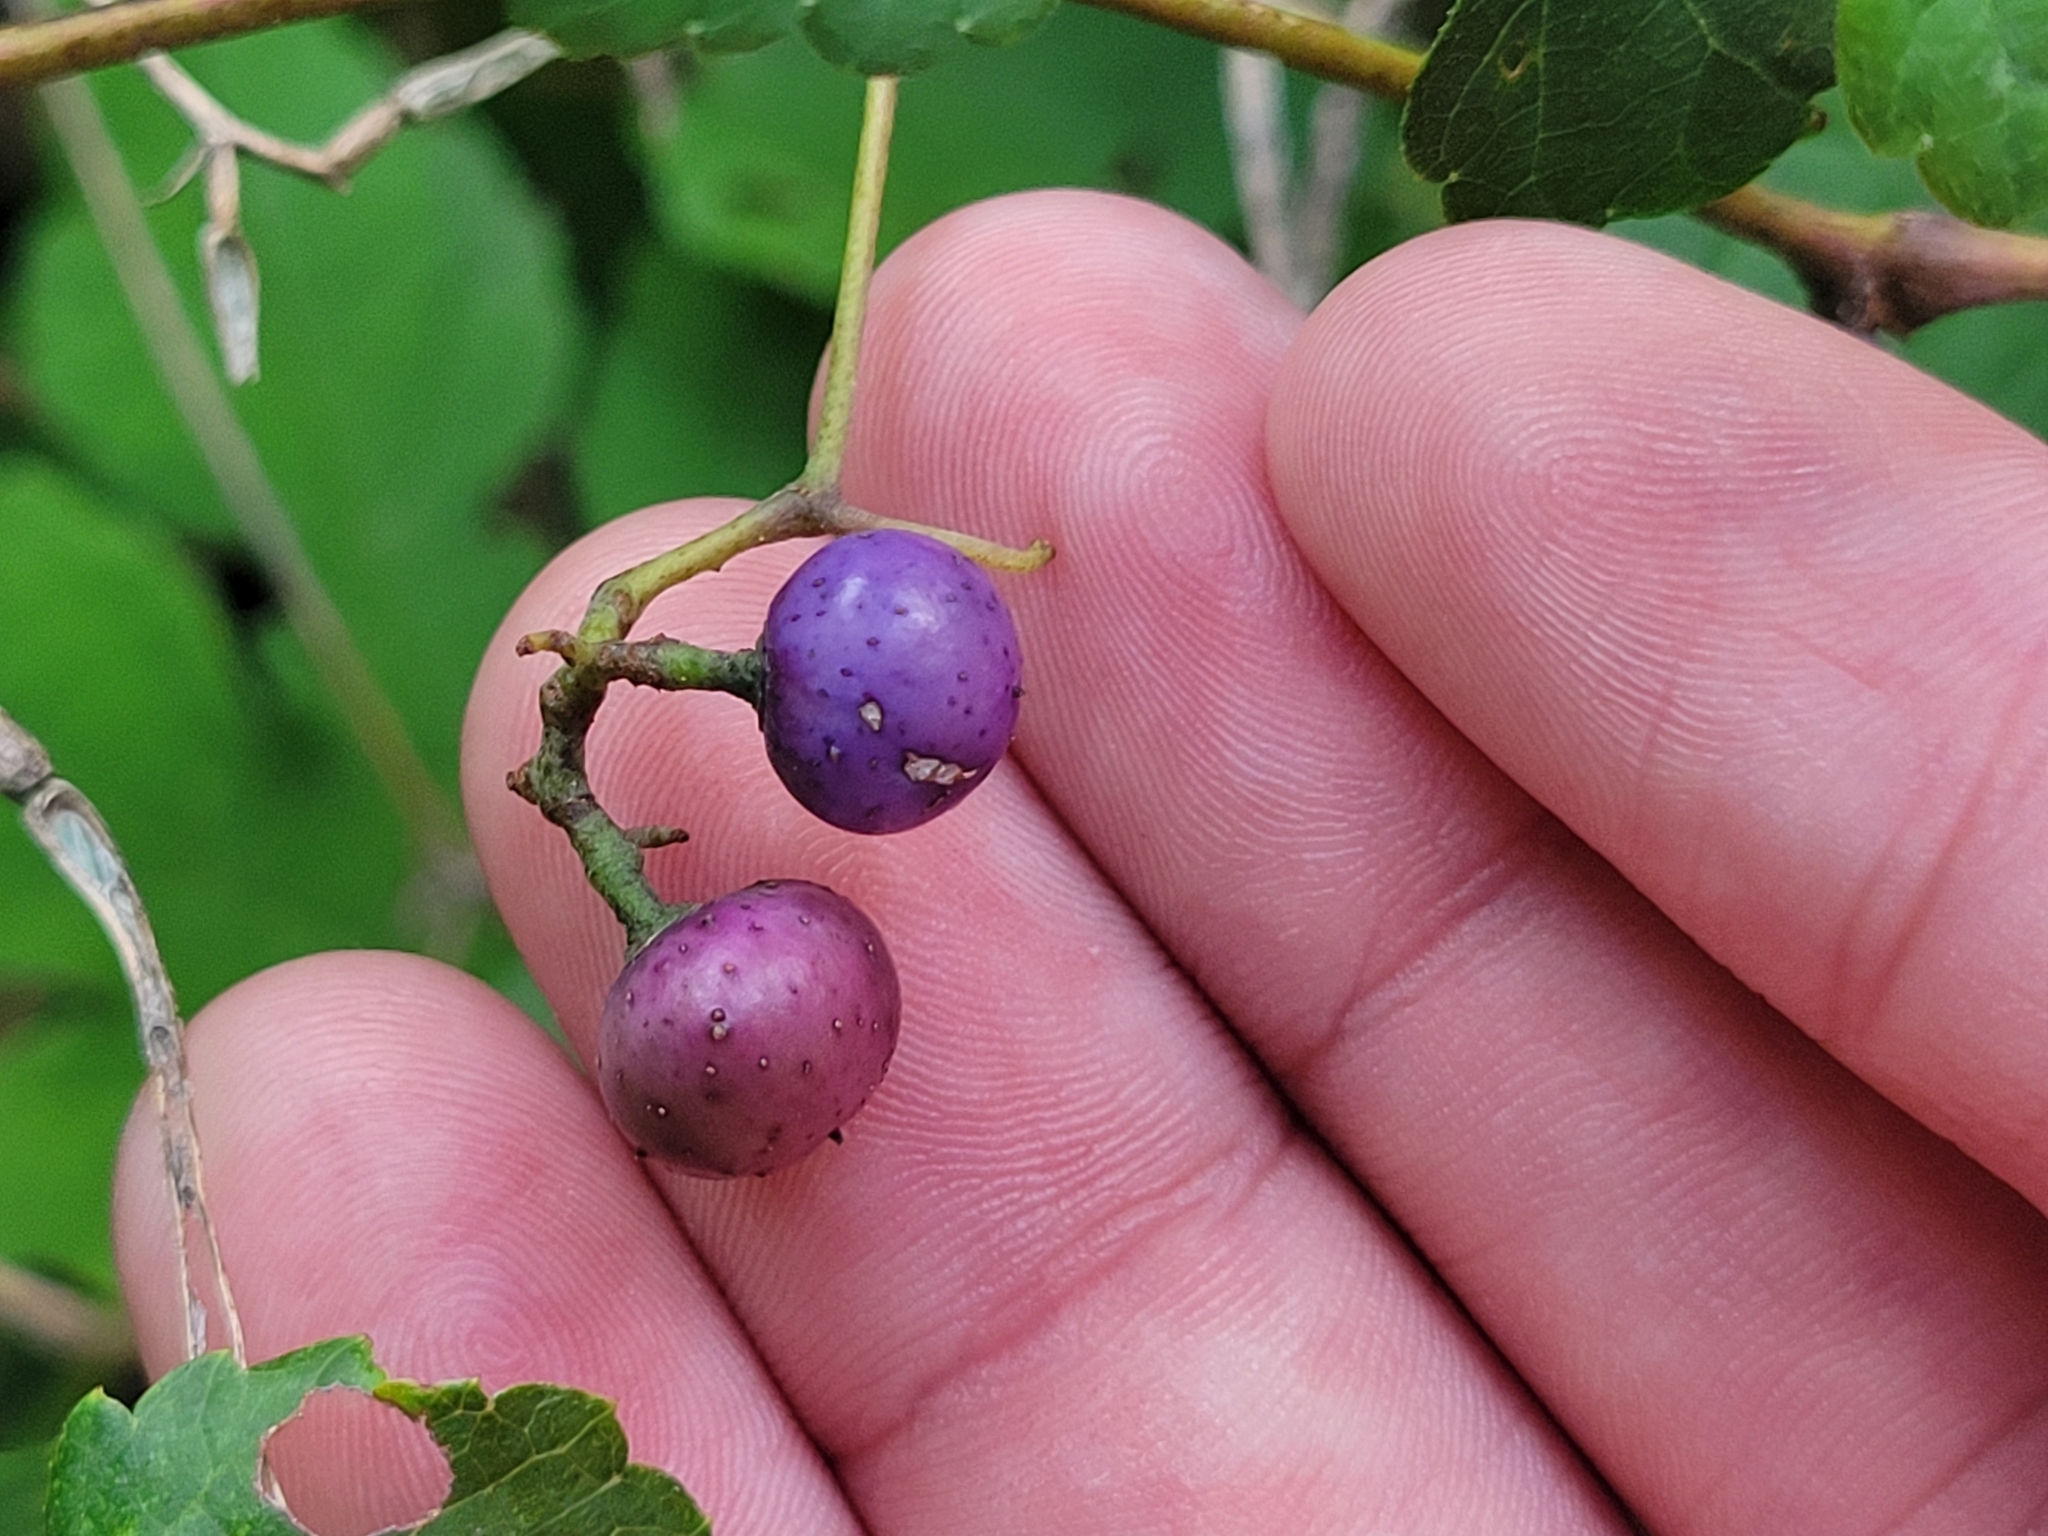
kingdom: Plantae
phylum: Tracheophyta
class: Magnoliopsida
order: Vitales
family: Vitaceae
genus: Ampelopsis
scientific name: Ampelopsis glandulosa
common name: Amur peppervine
